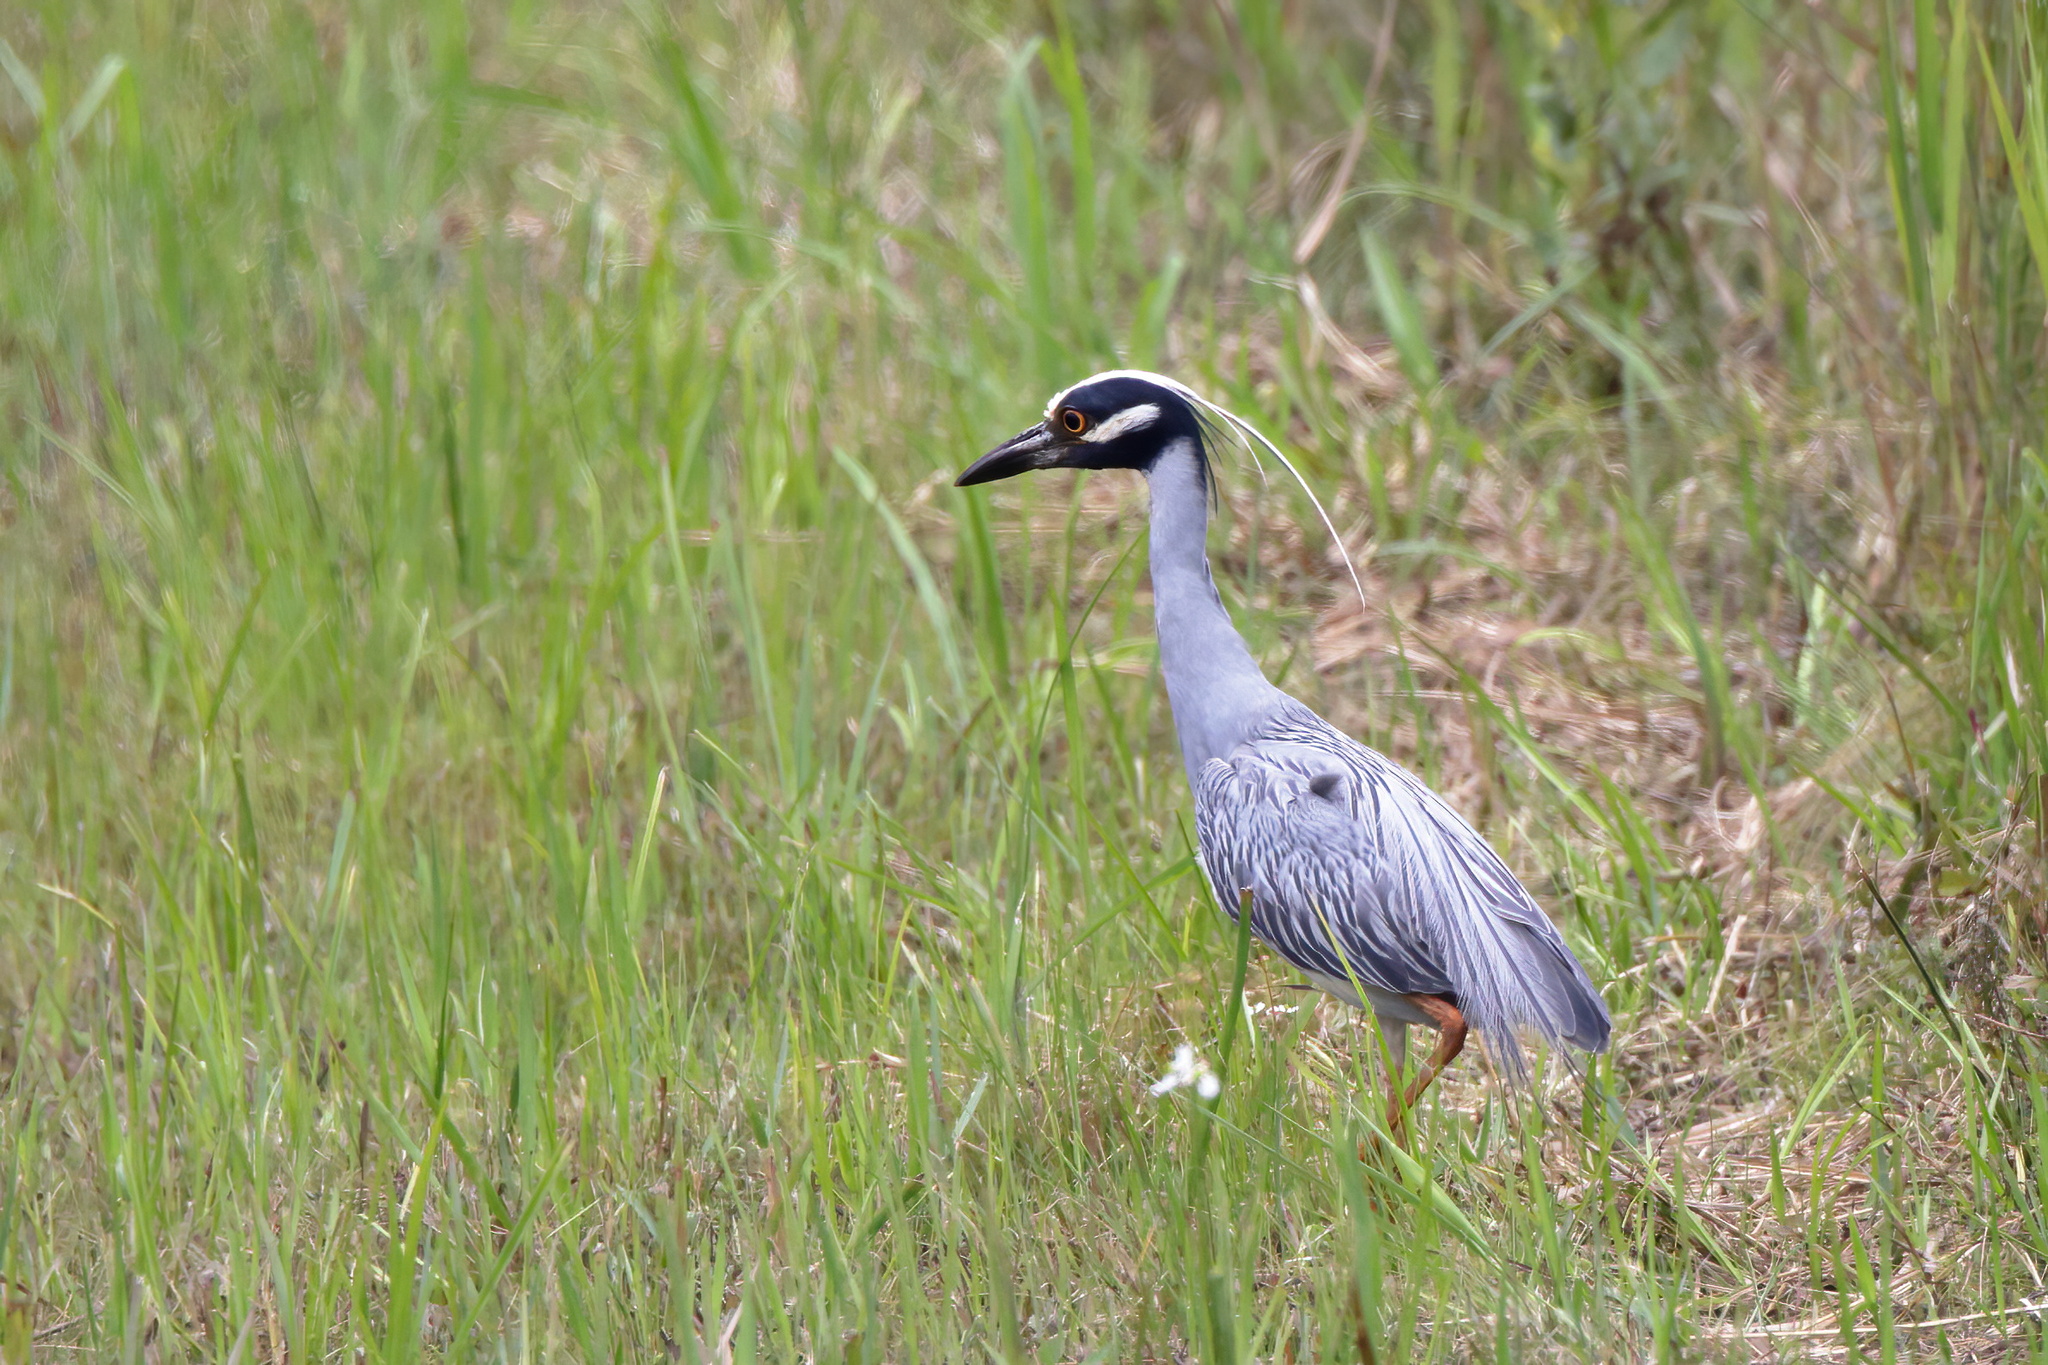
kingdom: Animalia
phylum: Chordata
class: Aves
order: Pelecaniformes
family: Ardeidae
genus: Nyctanassa
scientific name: Nyctanassa violacea
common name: Yellow-crowned night heron
